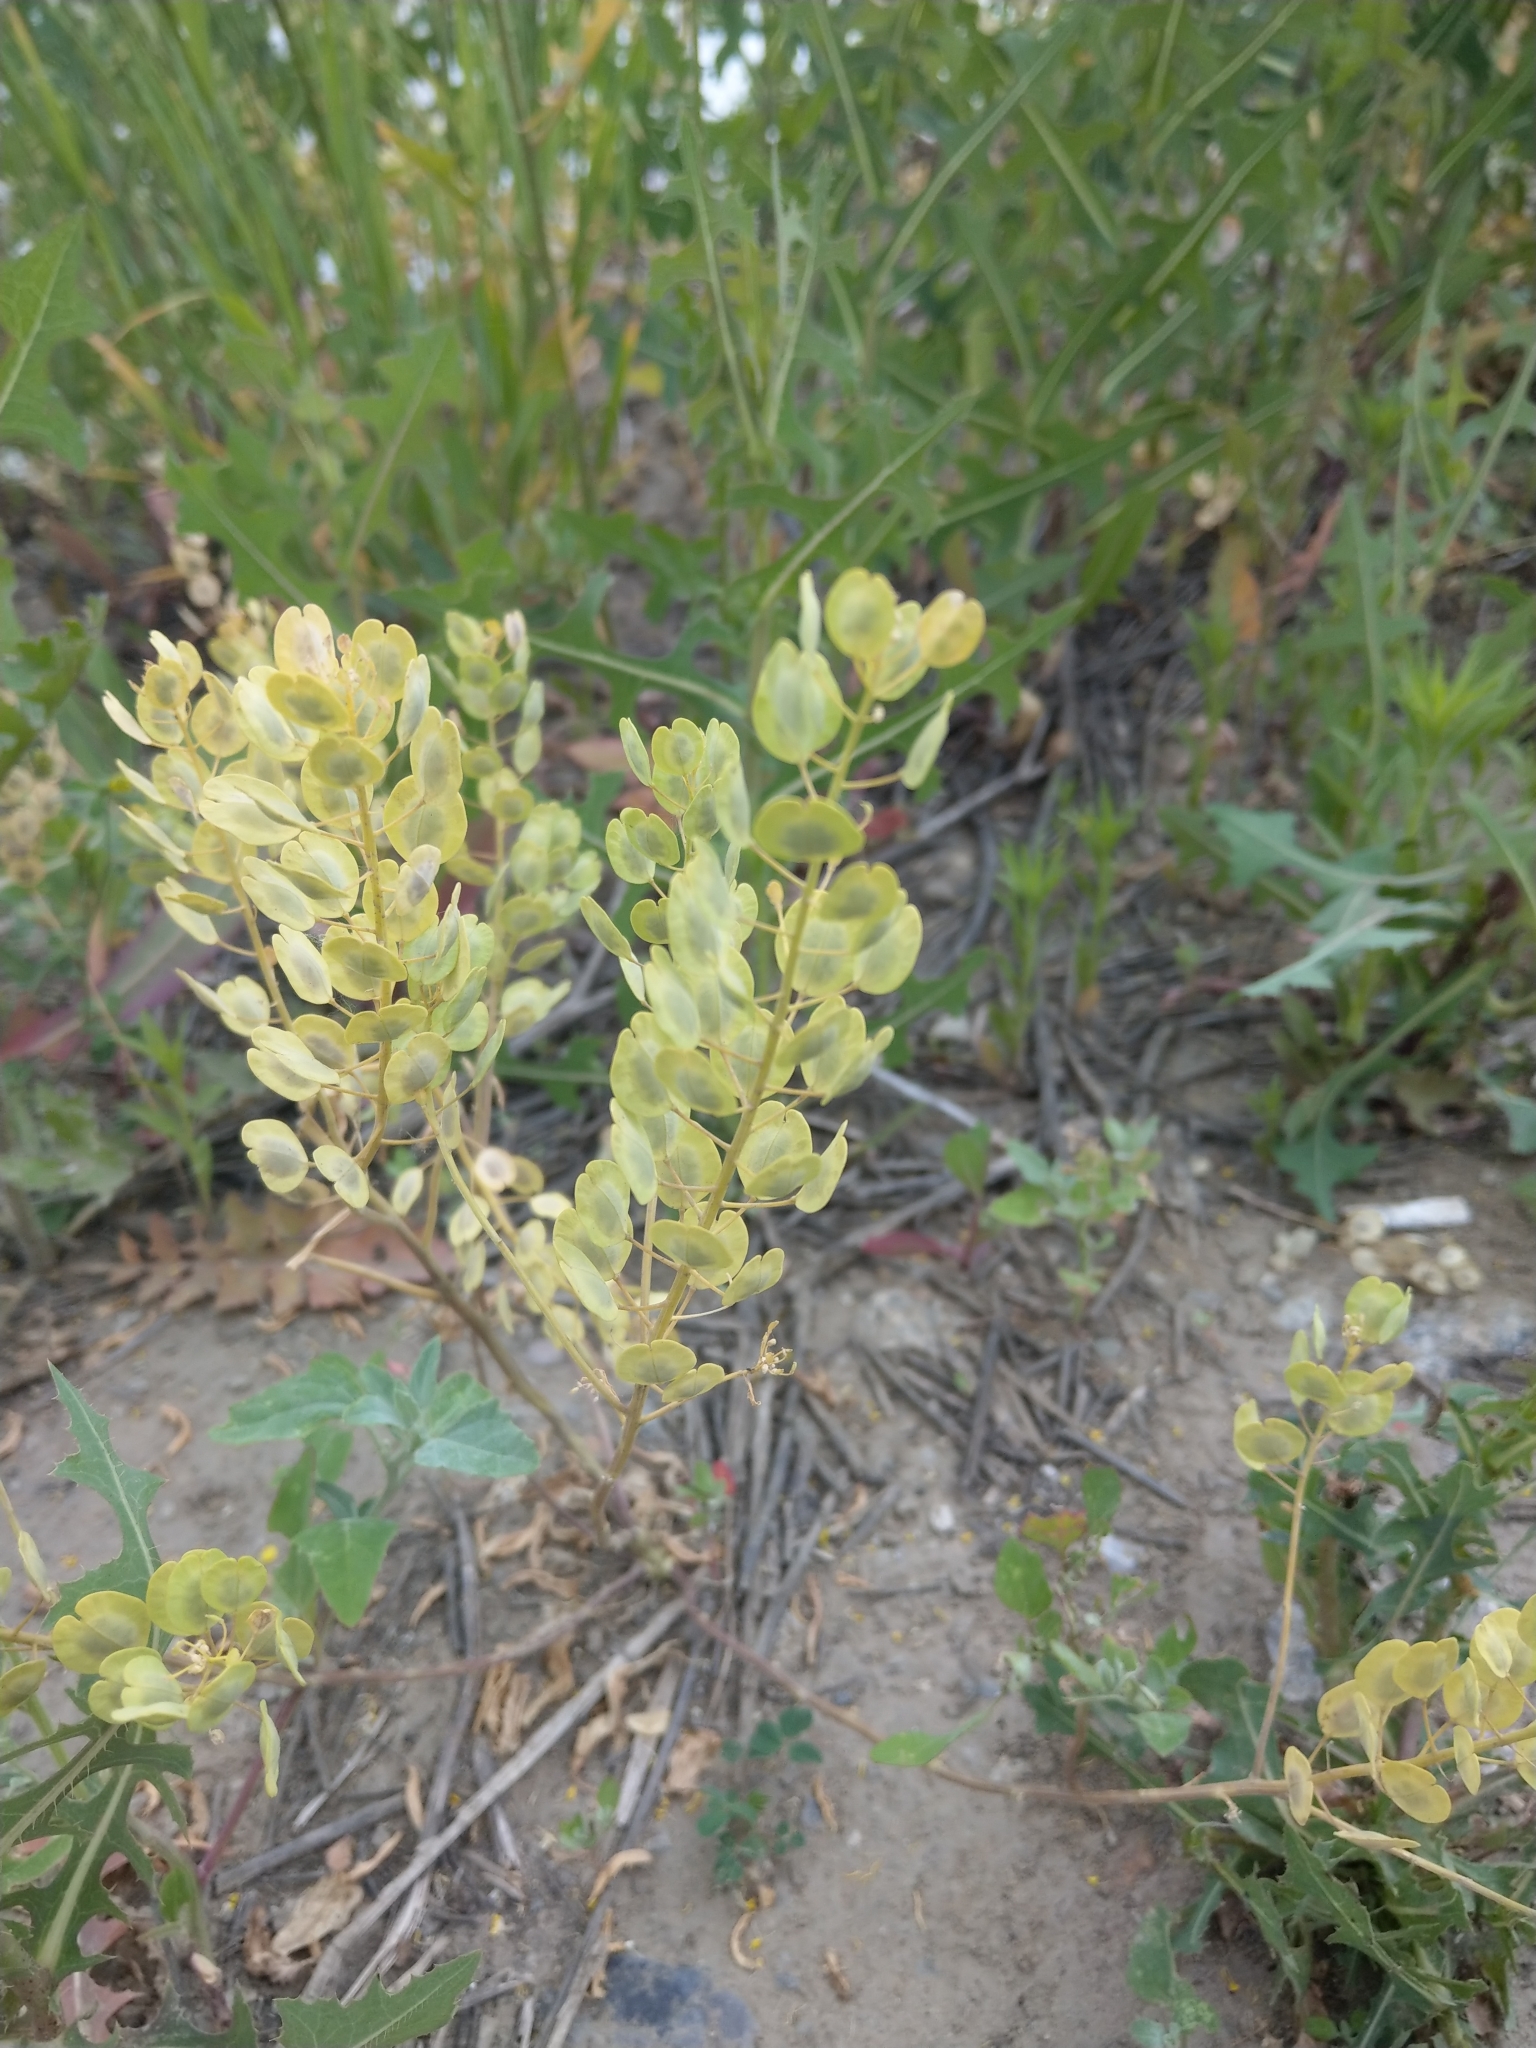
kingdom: Plantae
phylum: Tracheophyta
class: Magnoliopsida
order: Brassicales
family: Brassicaceae
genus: Thlaspi
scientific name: Thlaspi arvense
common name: Field pennycress
